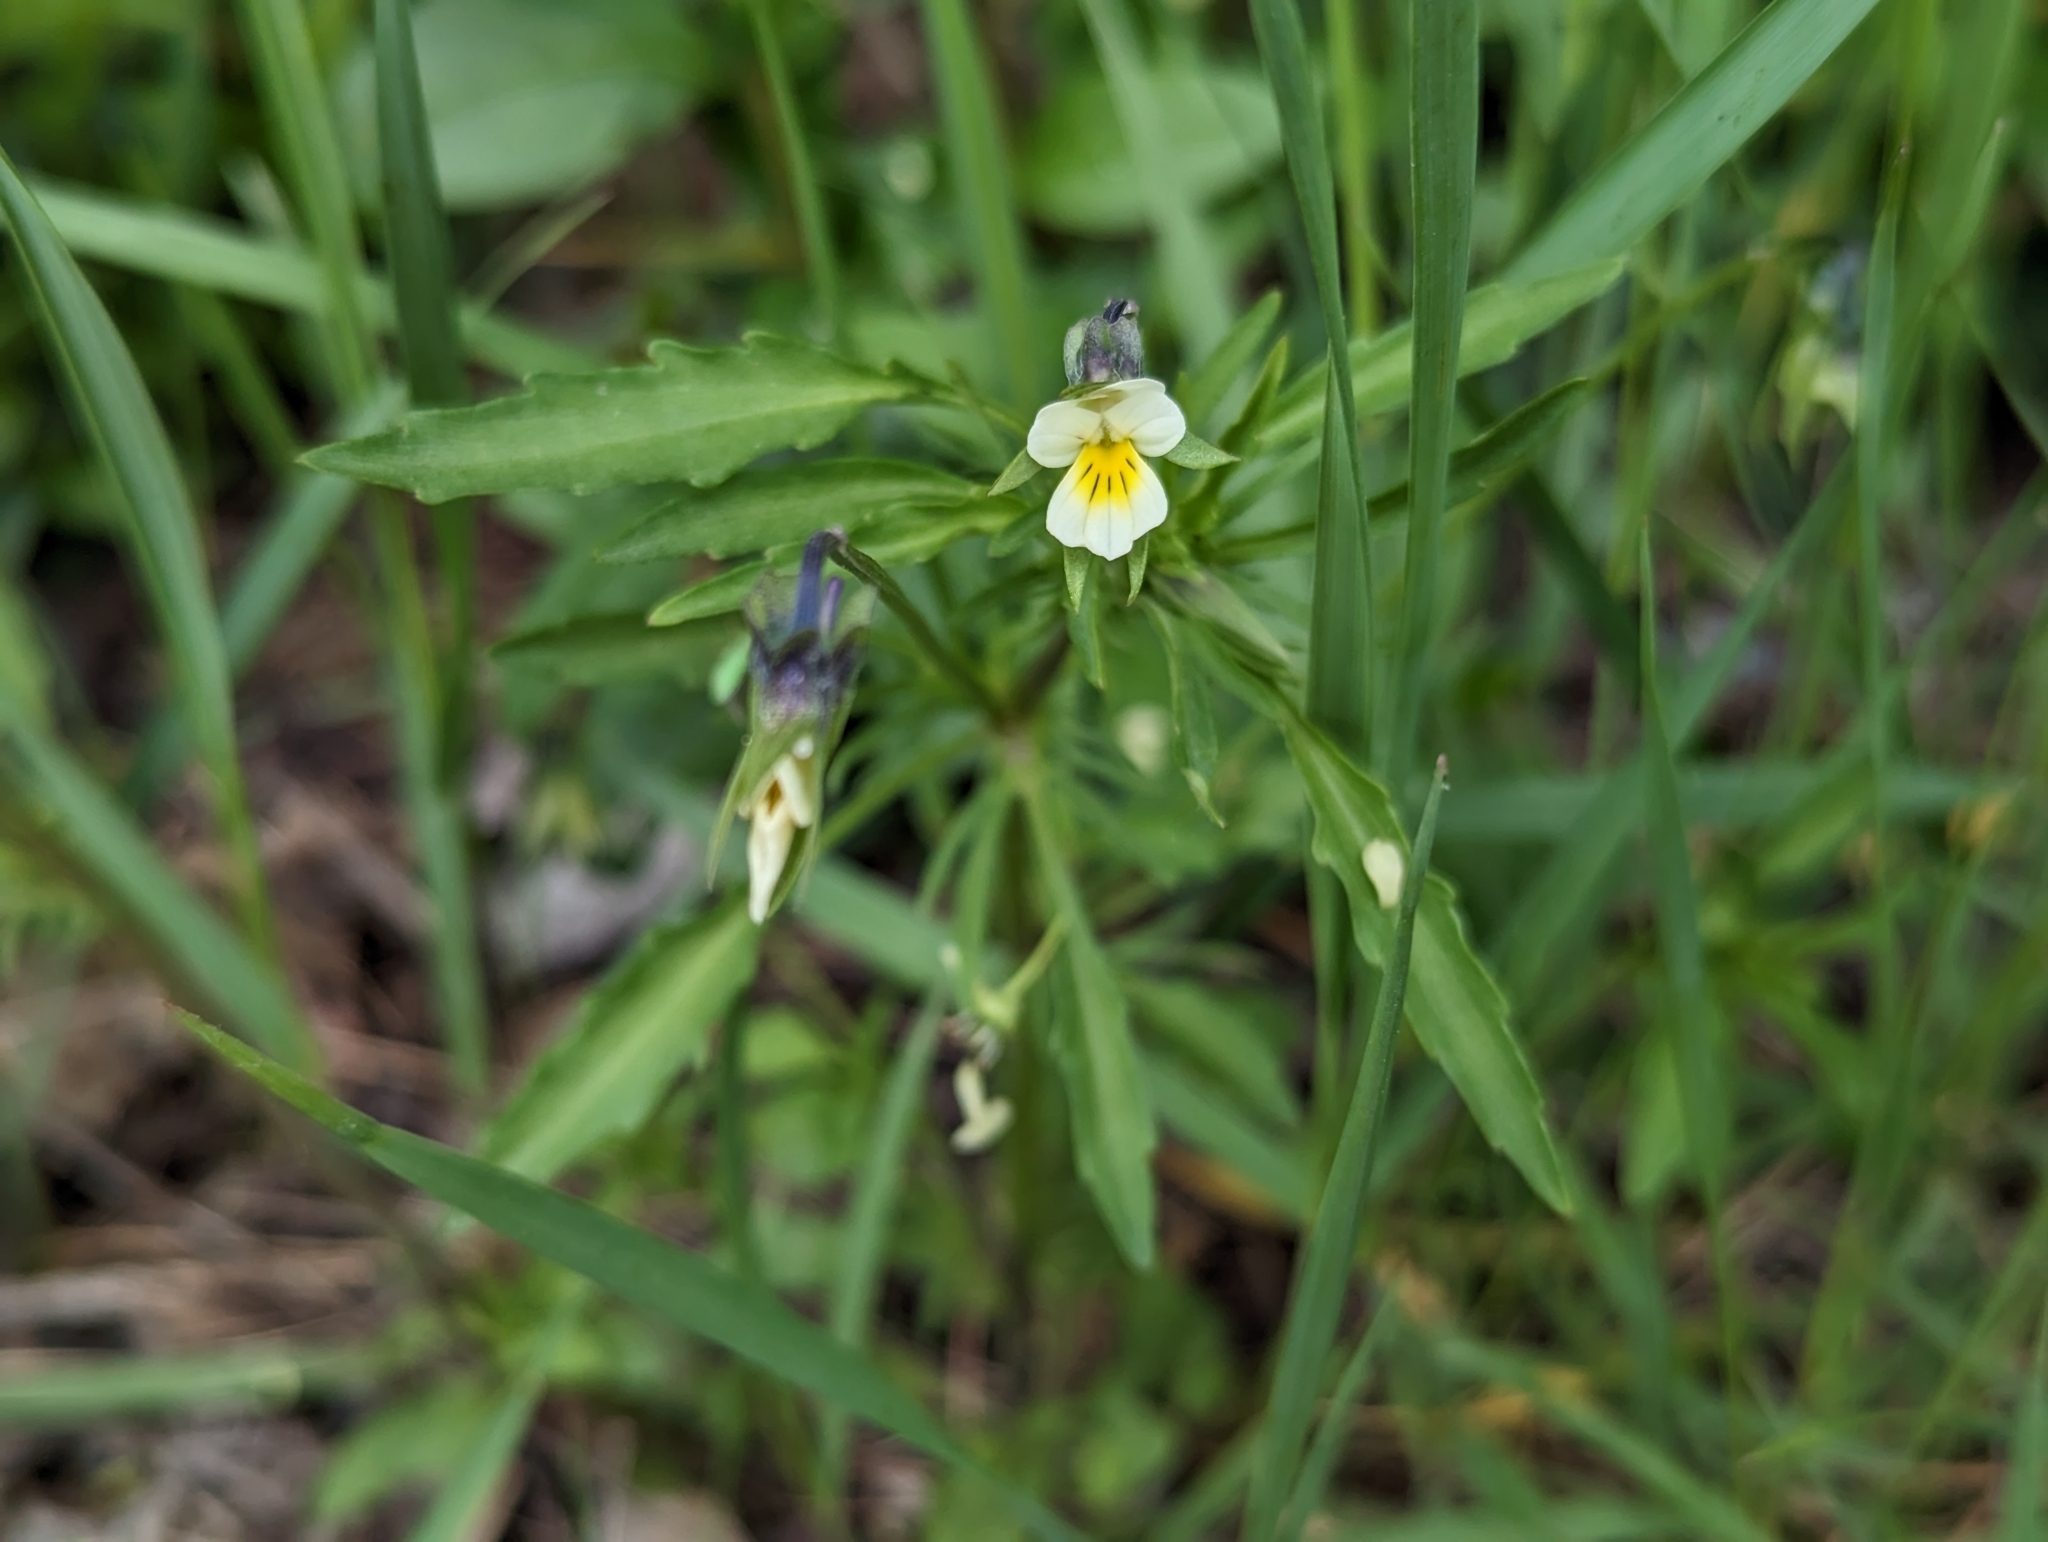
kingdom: Plantae
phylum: Tracheophyta
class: Magnoliopsida
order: Malpighiales
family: Violaceae
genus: Viola
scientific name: Viola arvensis
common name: Field pansy
